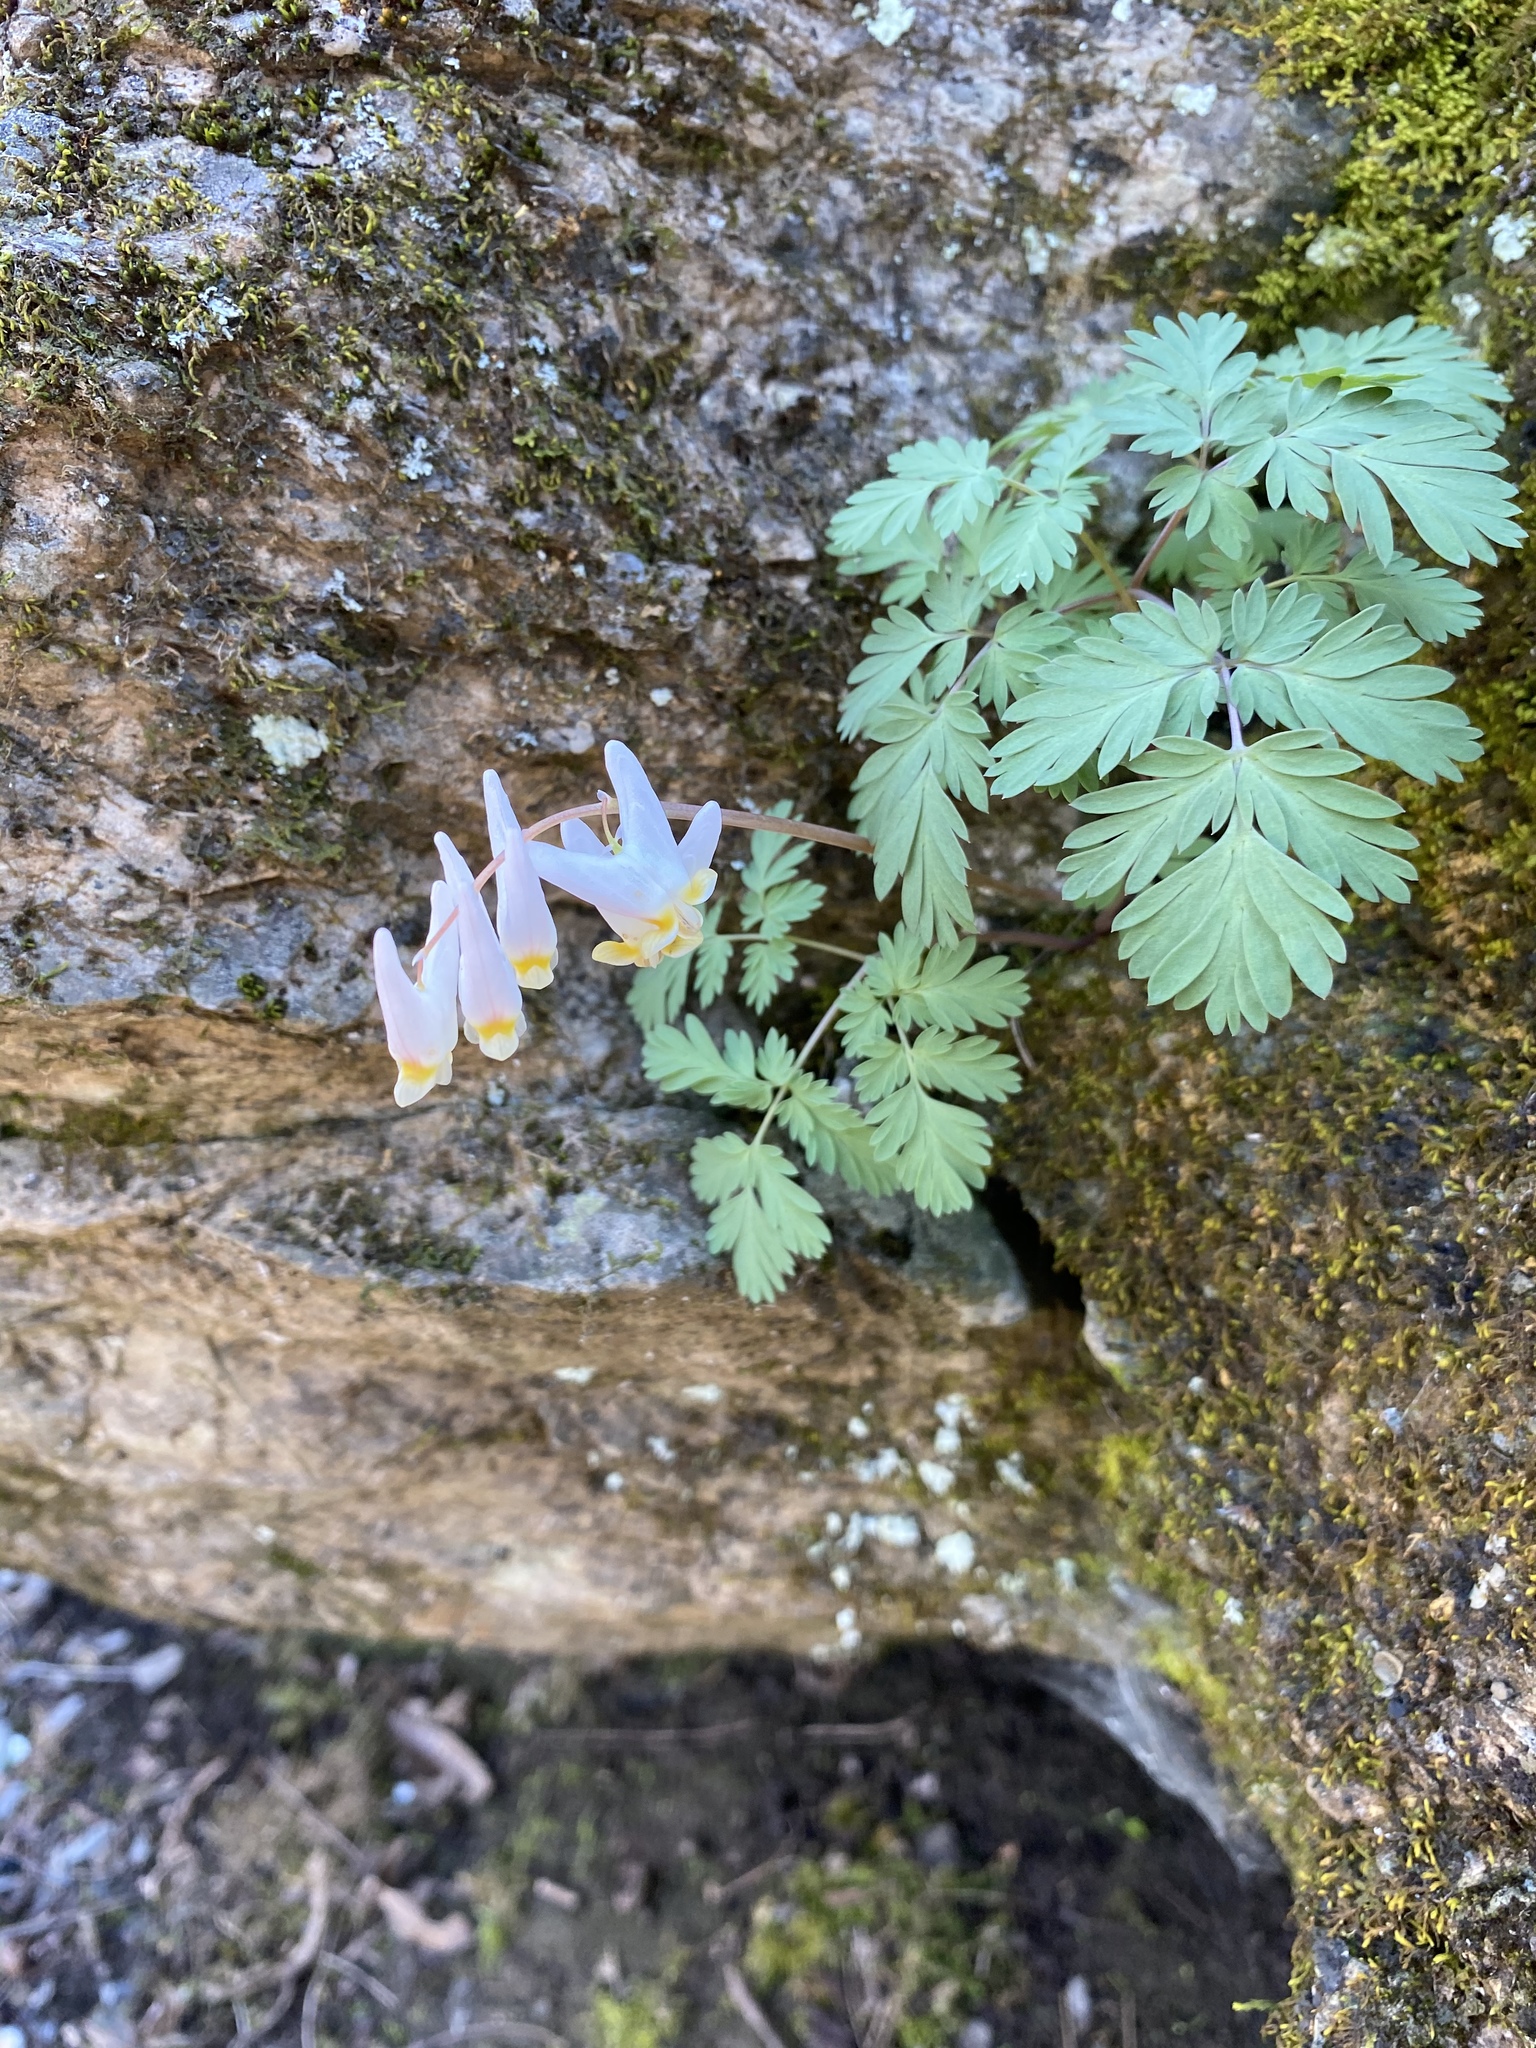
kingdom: Plantae
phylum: Tracheophyta
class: Magnoliopsida
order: Ranunculales
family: Papaveraceae
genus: Dicentra
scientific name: Dicentra cucullaria
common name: Dutchman's breeches
